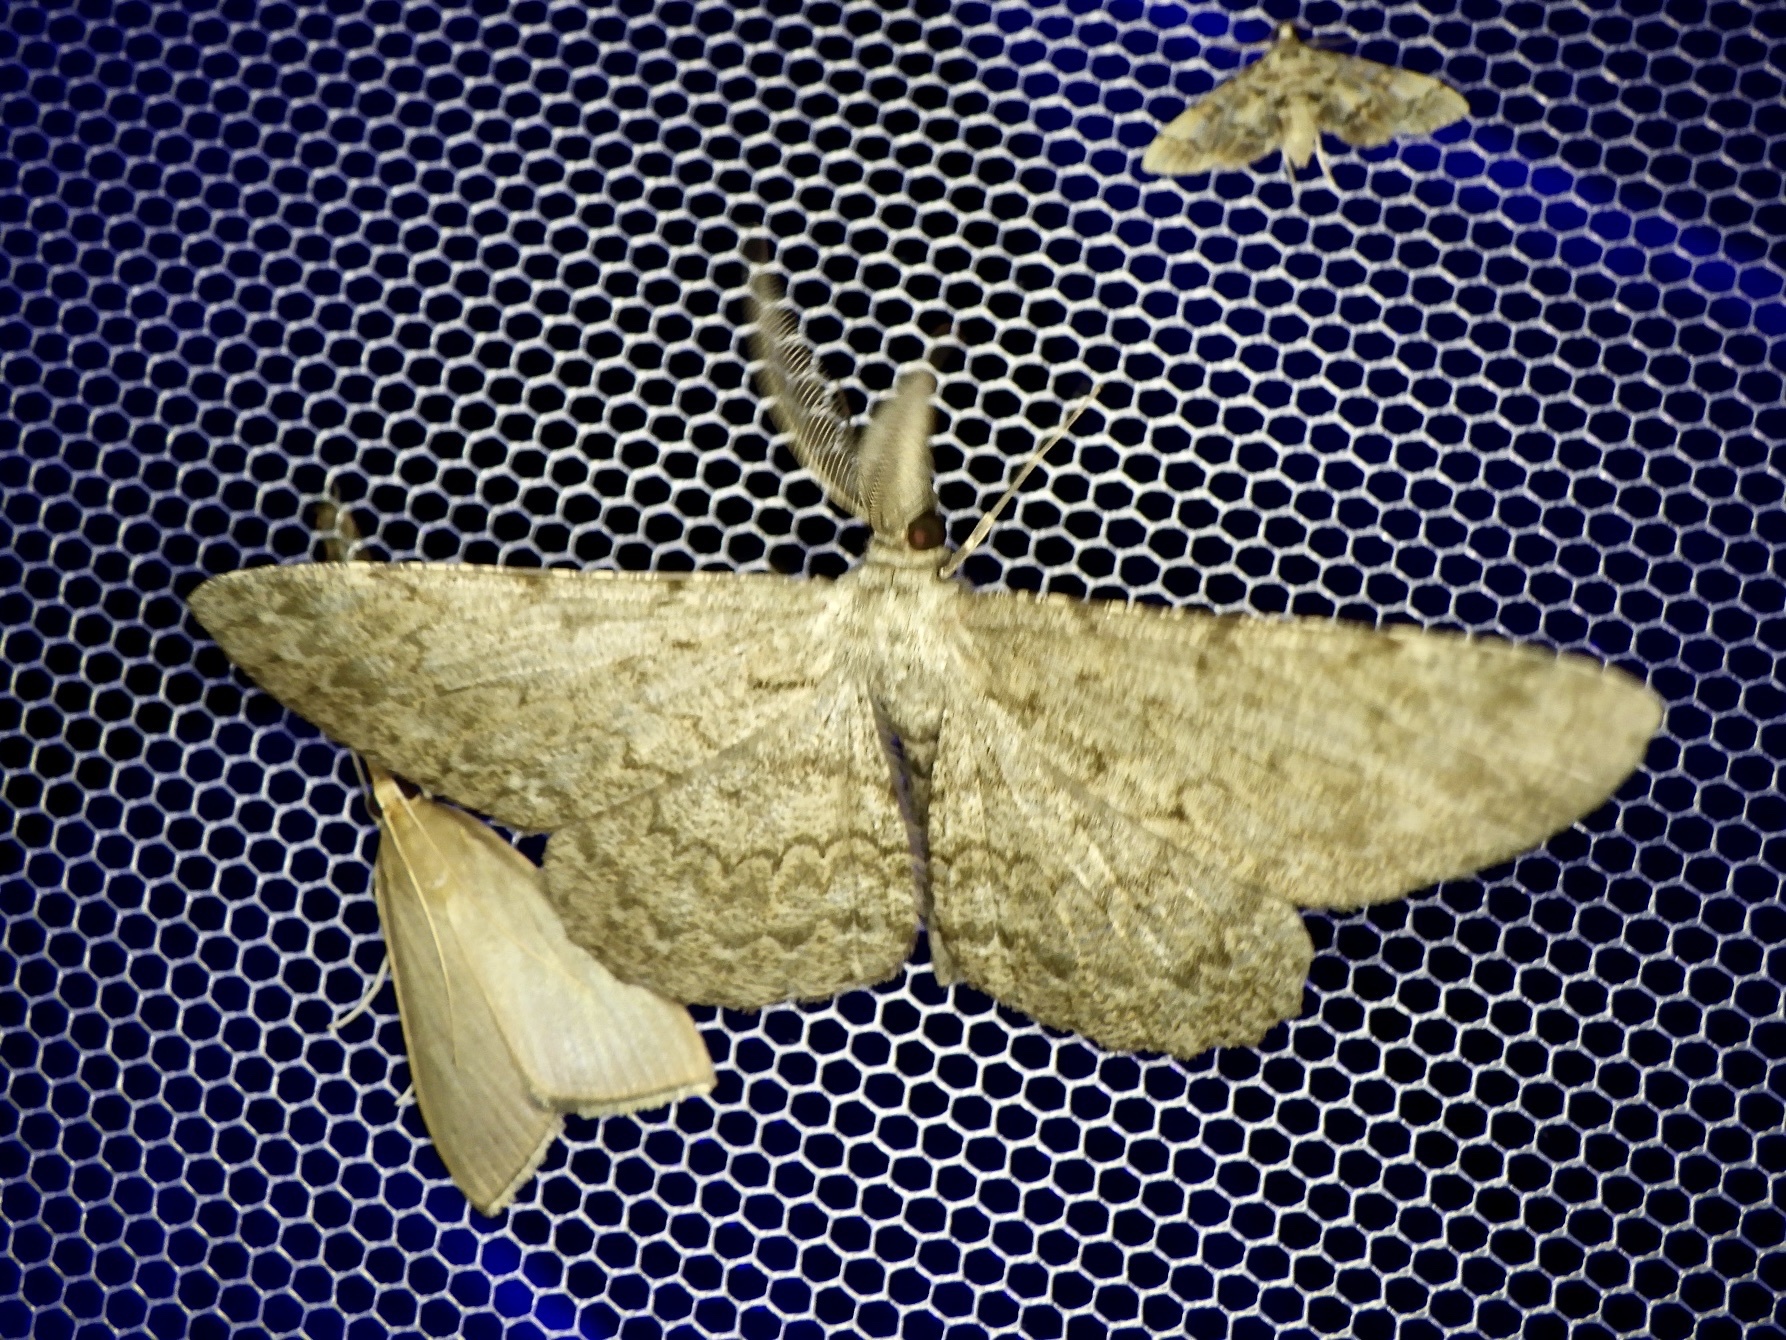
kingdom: Animalia
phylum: Arthropoda
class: Insecta
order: Lepidoptera
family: Geometridae
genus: Hypomecis
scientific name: Hypomecis lunifera
